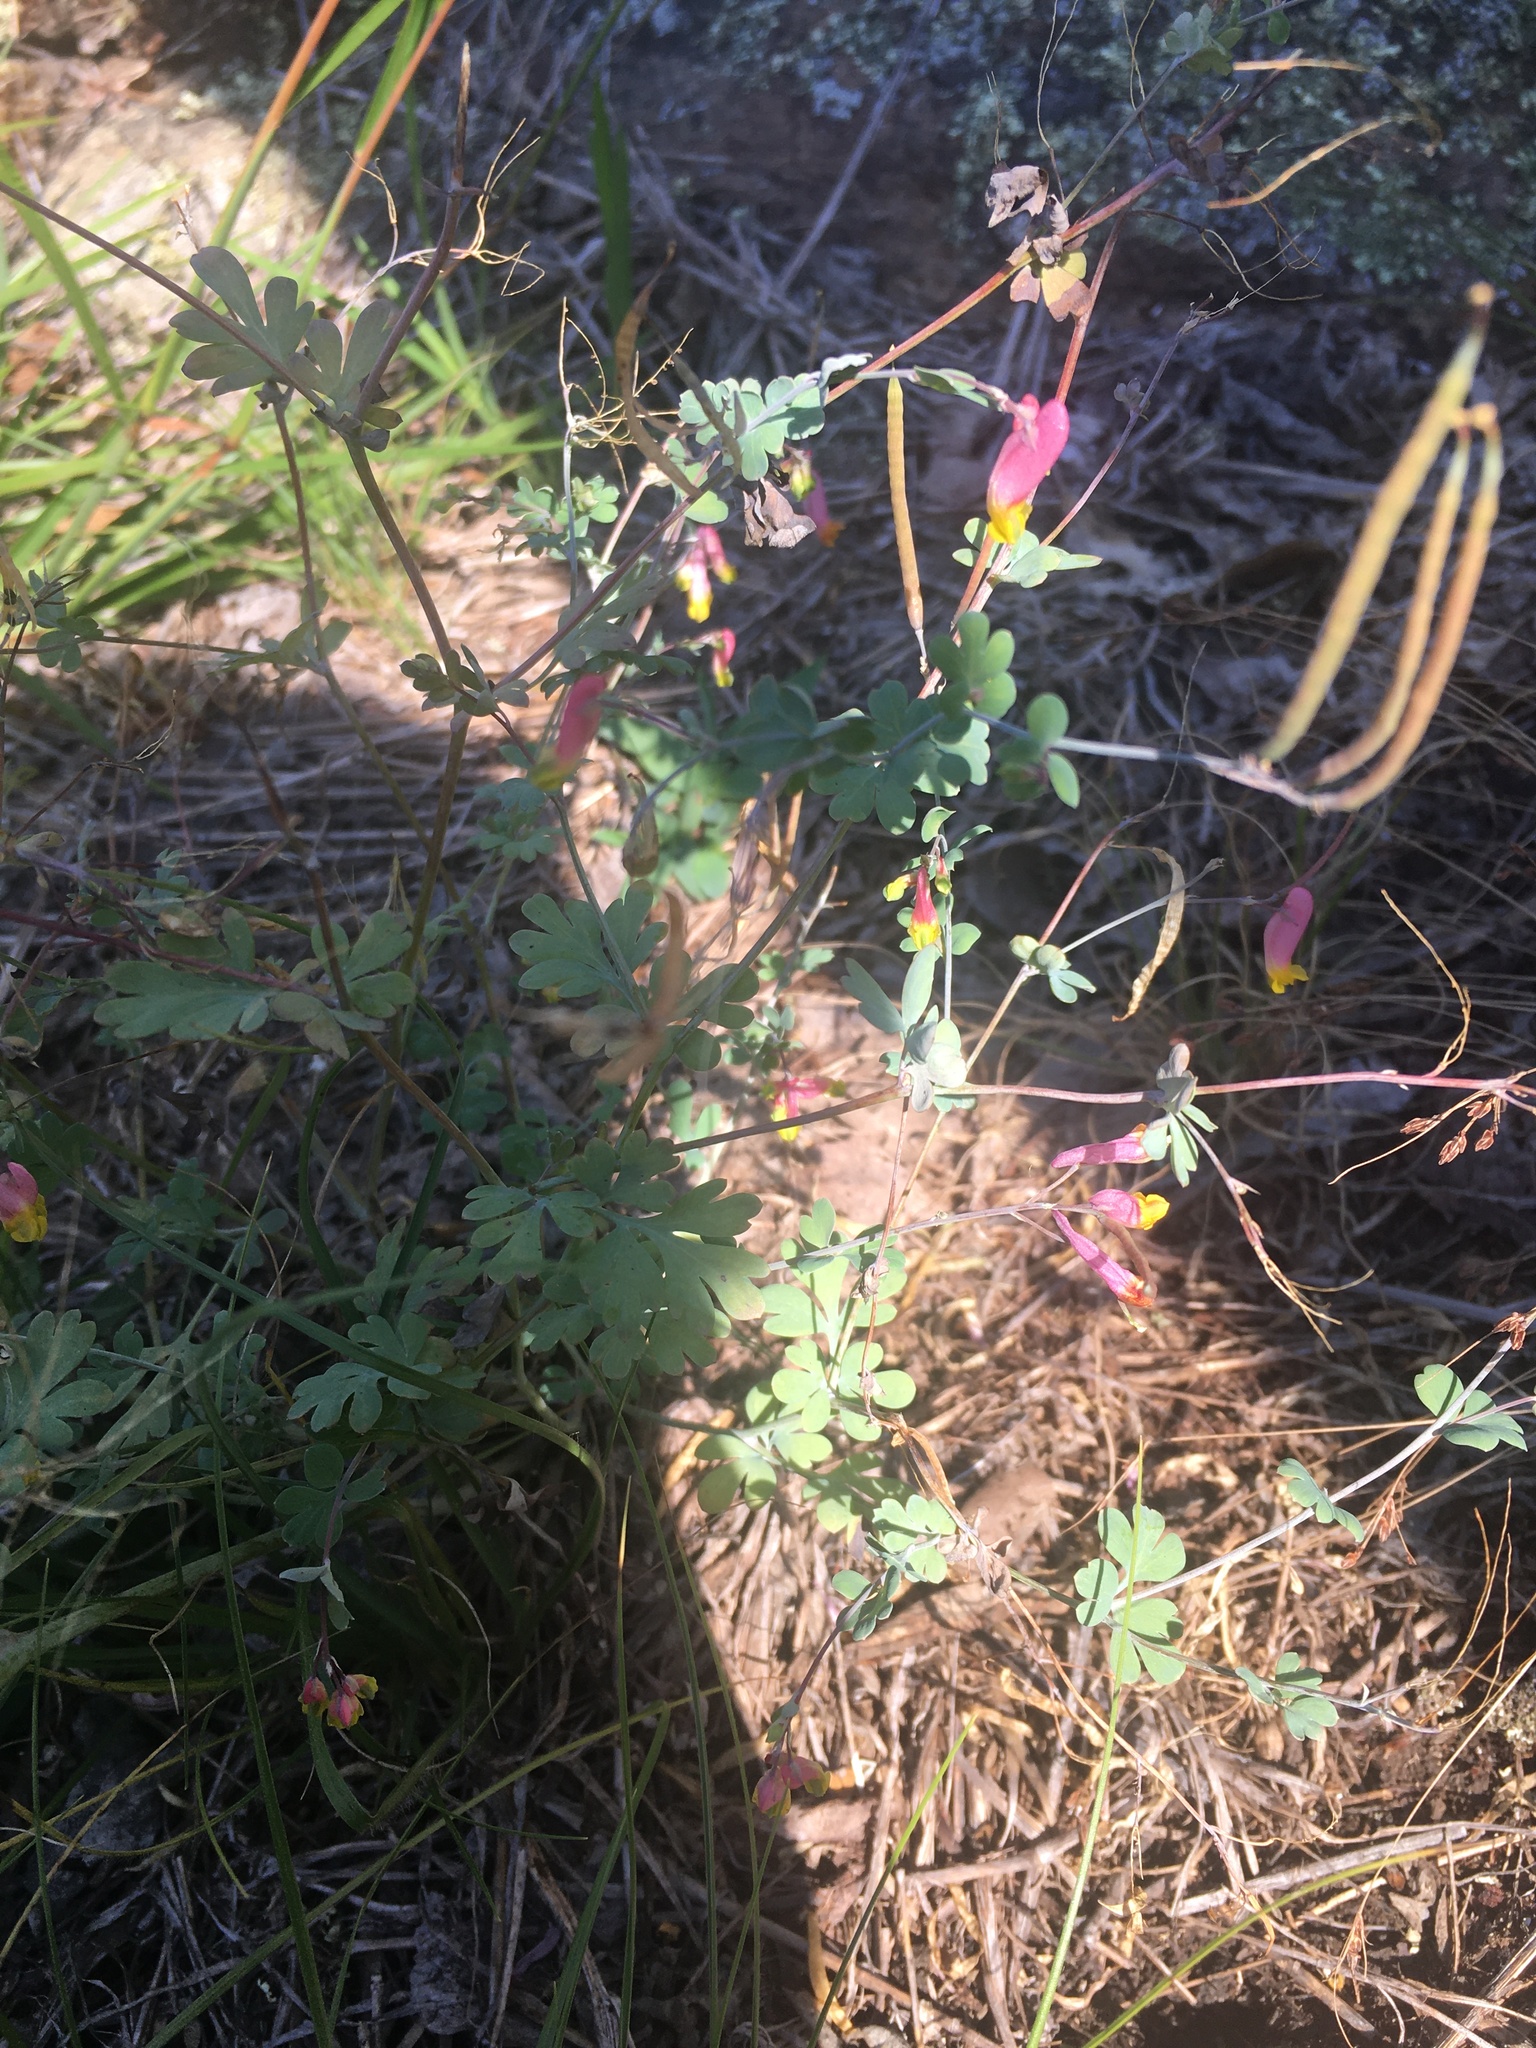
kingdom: Plantae
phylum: Tracheophyta
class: Magnoliopsida
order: Ranunculales
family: Papaveraceae
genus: Capnoides
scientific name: Capnoides sempervirens
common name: Rock harlequin
